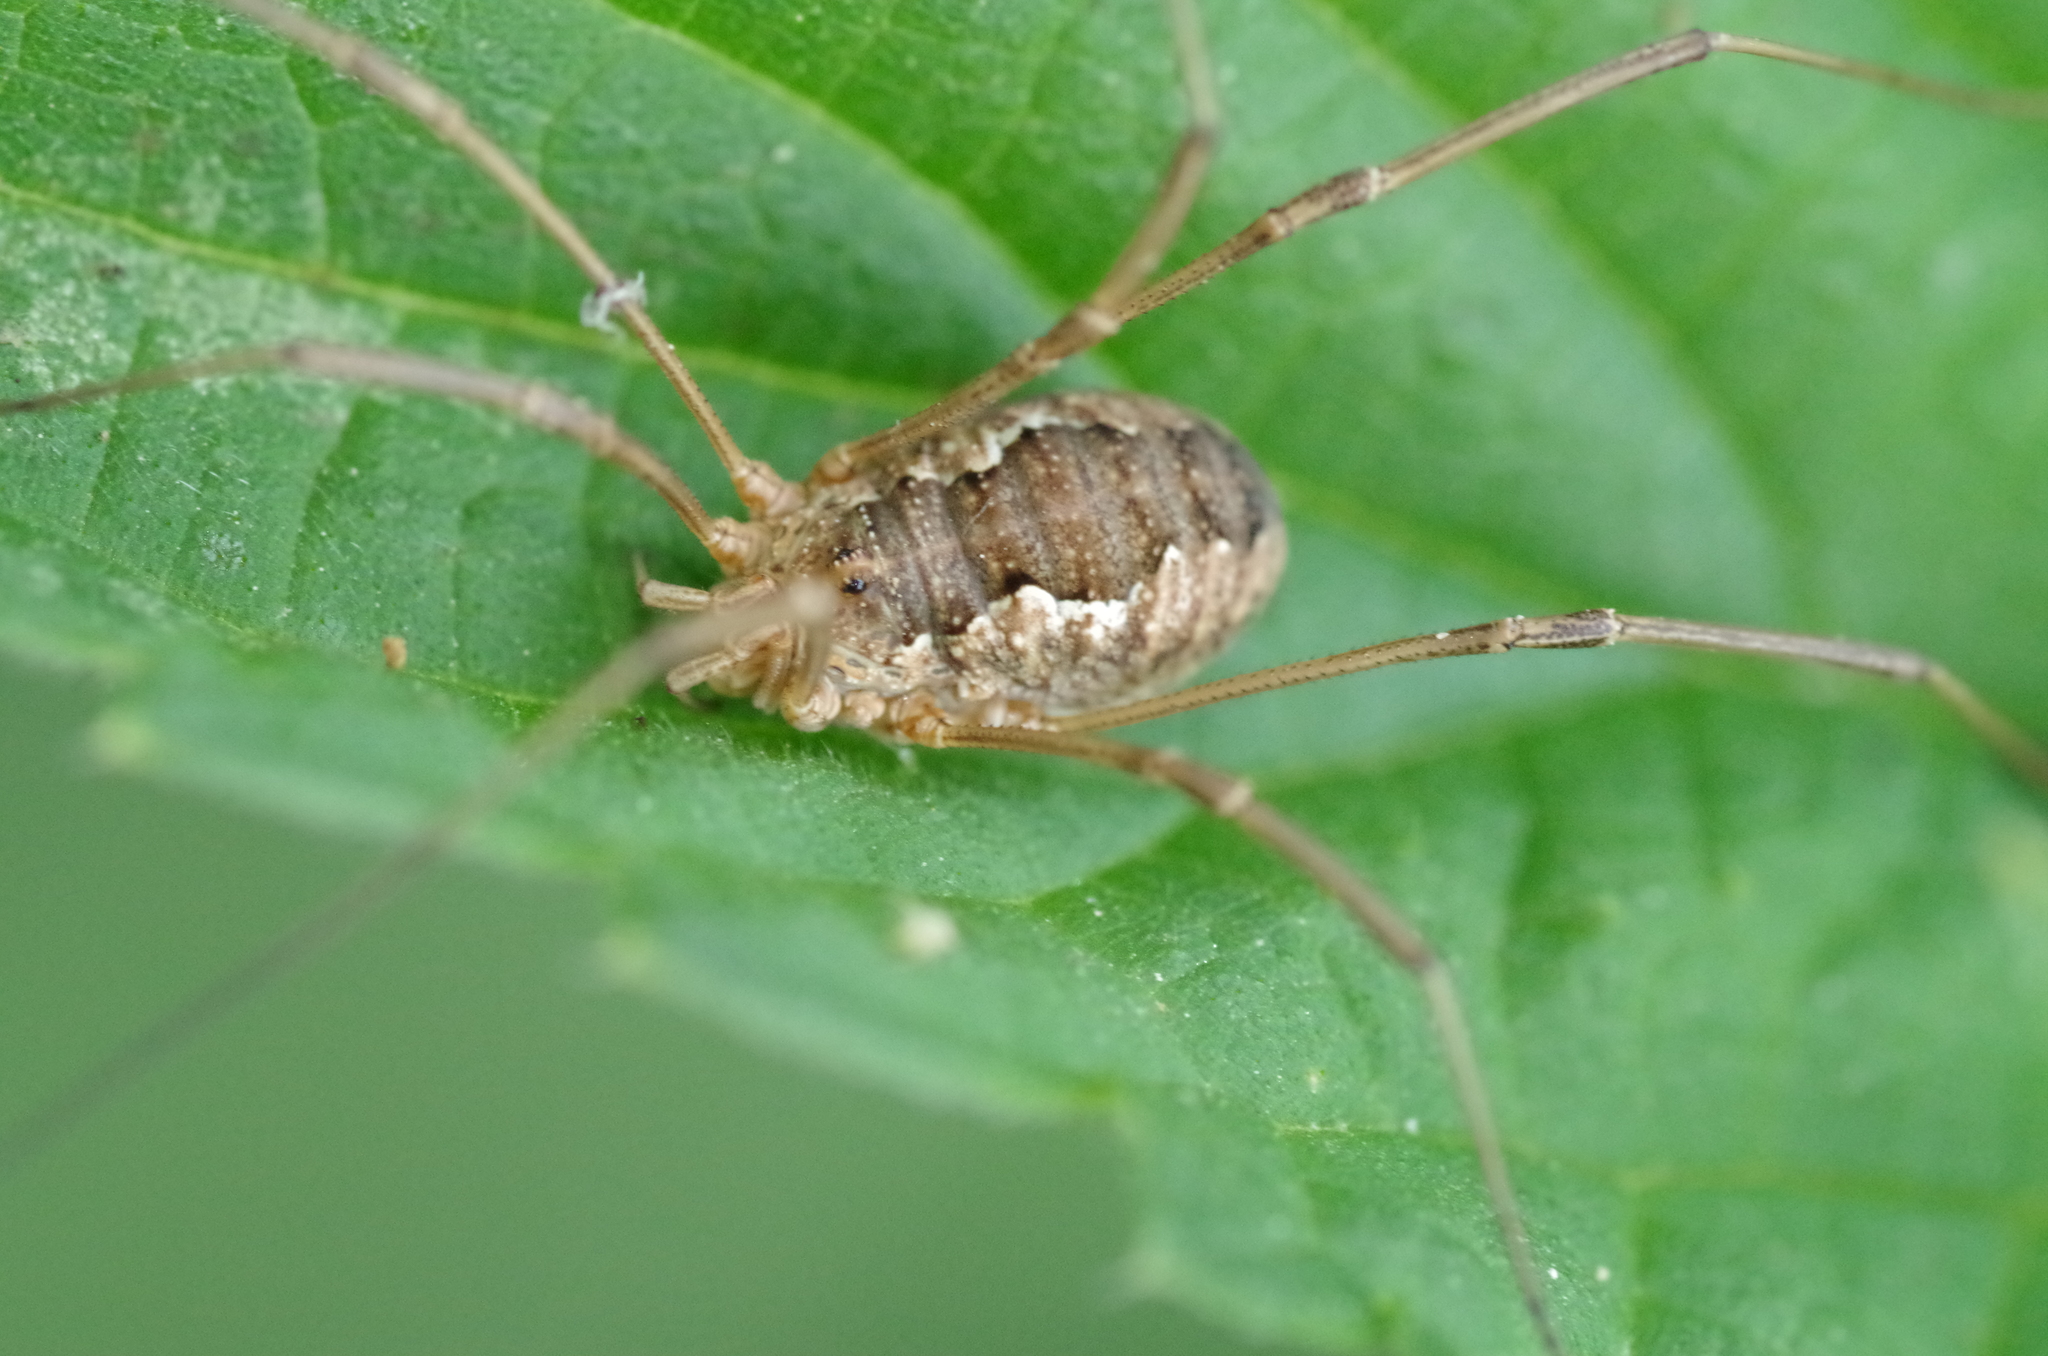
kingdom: Animalia
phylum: Arthropoda
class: Arachnida
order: Opiliones
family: Phalangiidae
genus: Phalangium
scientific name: Phalangium opilio
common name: Daddy longleg
